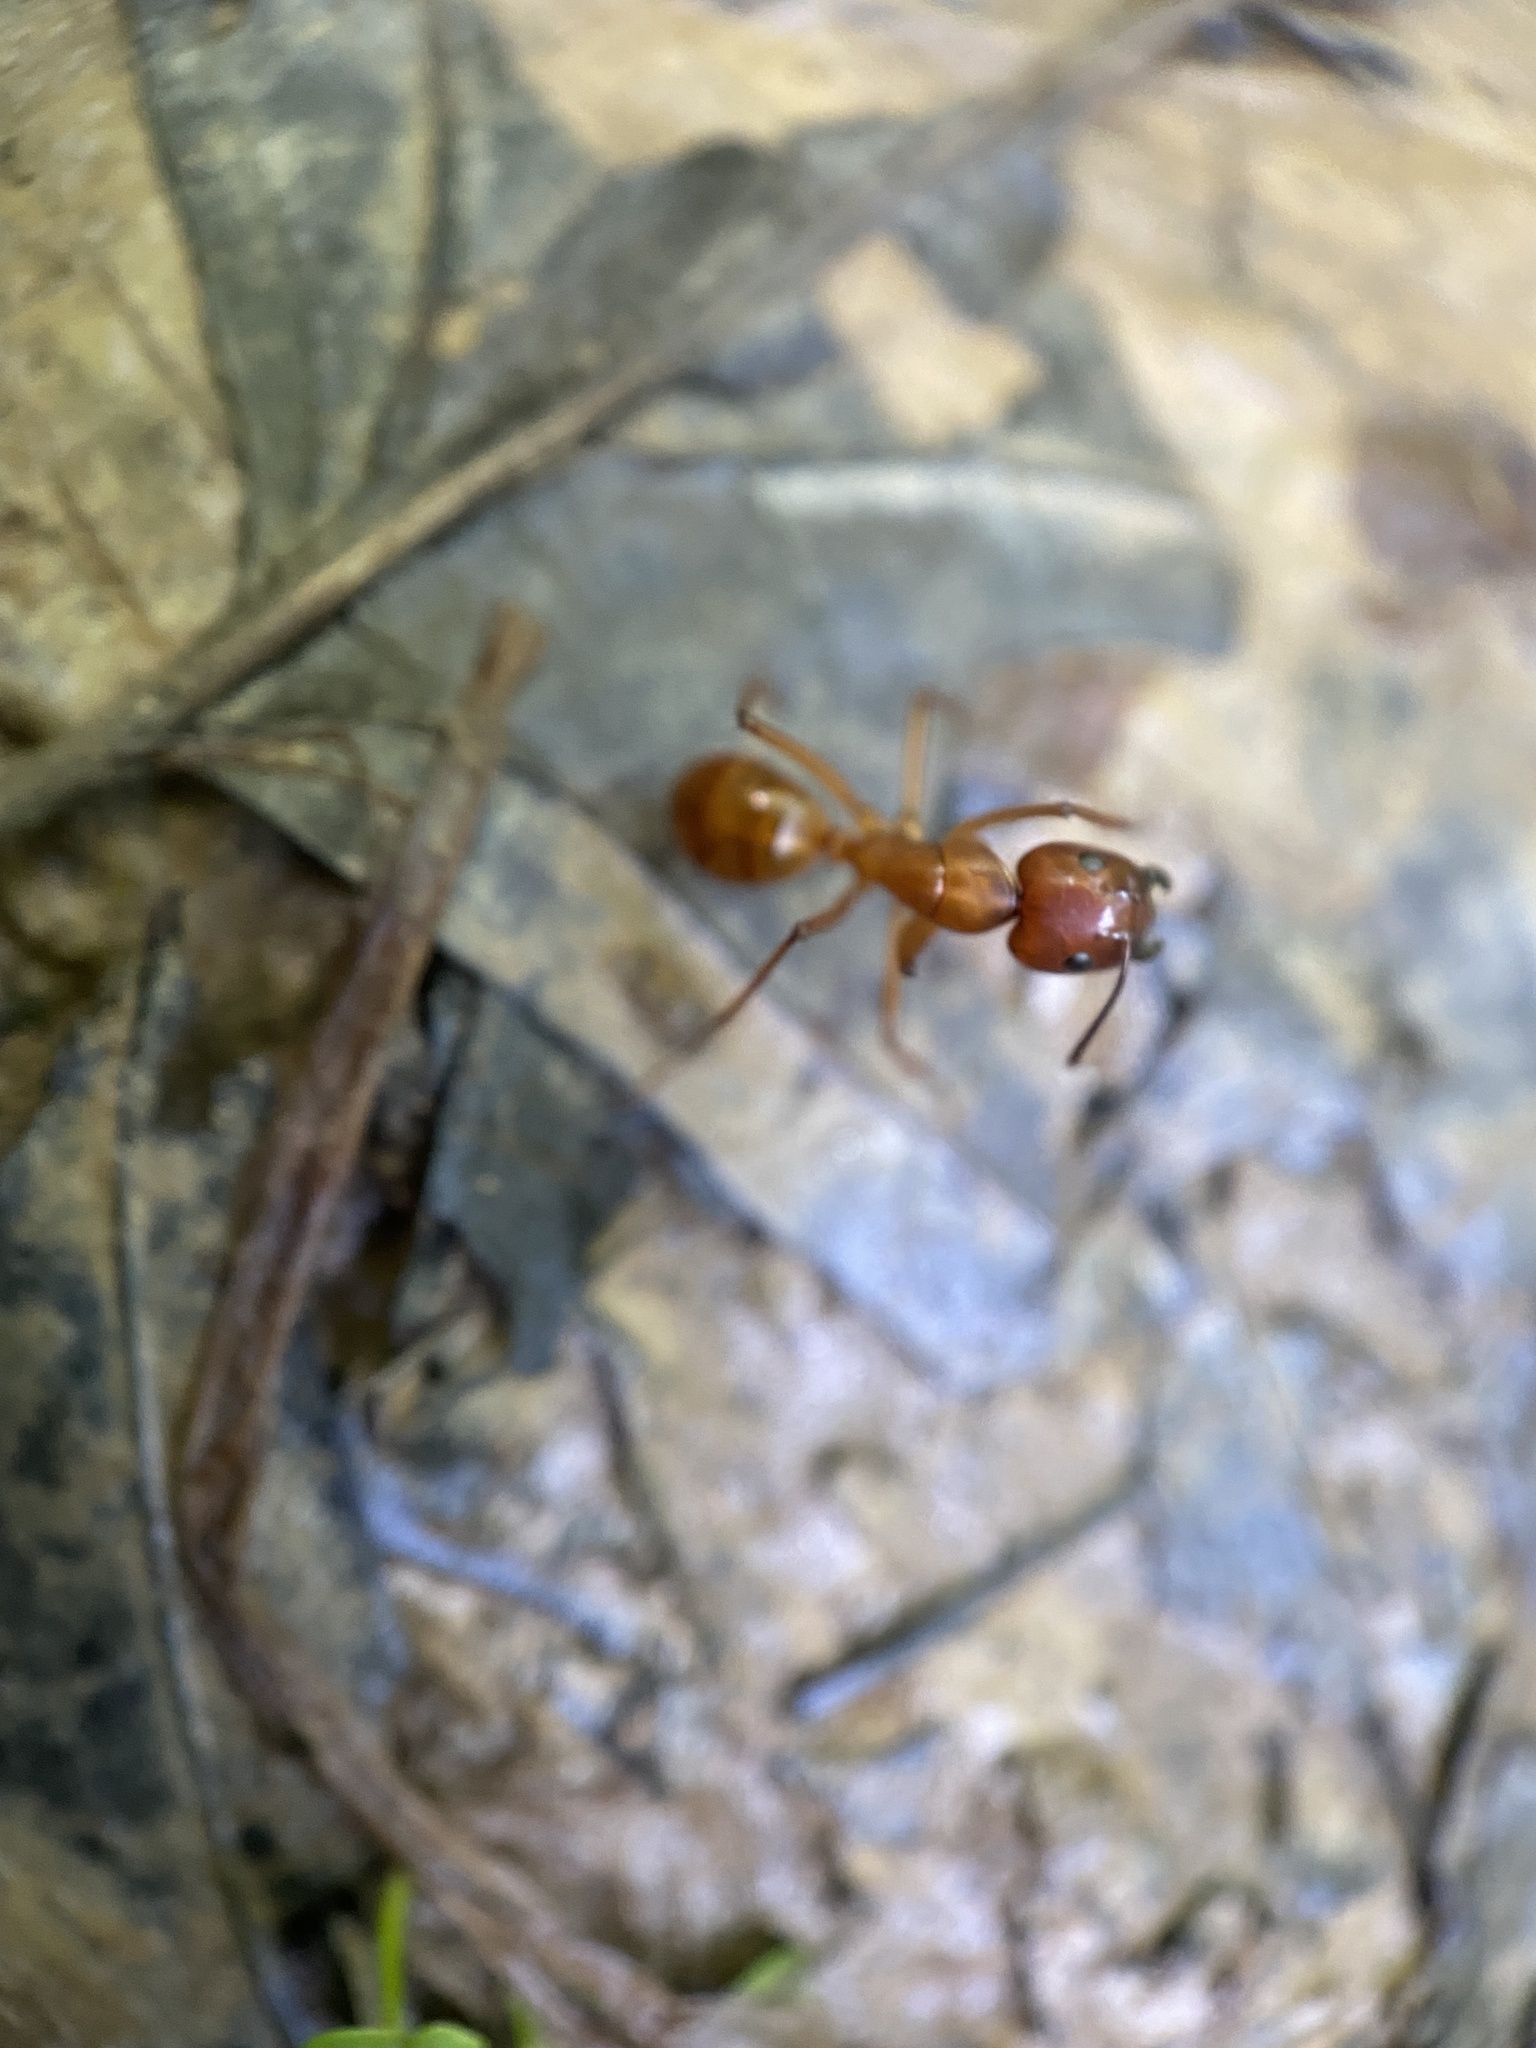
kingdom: Animalia
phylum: Arthropoda
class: Insecta
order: Hymenoptera
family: Formicidae
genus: Camponotus
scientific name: Camponotus castaneus
